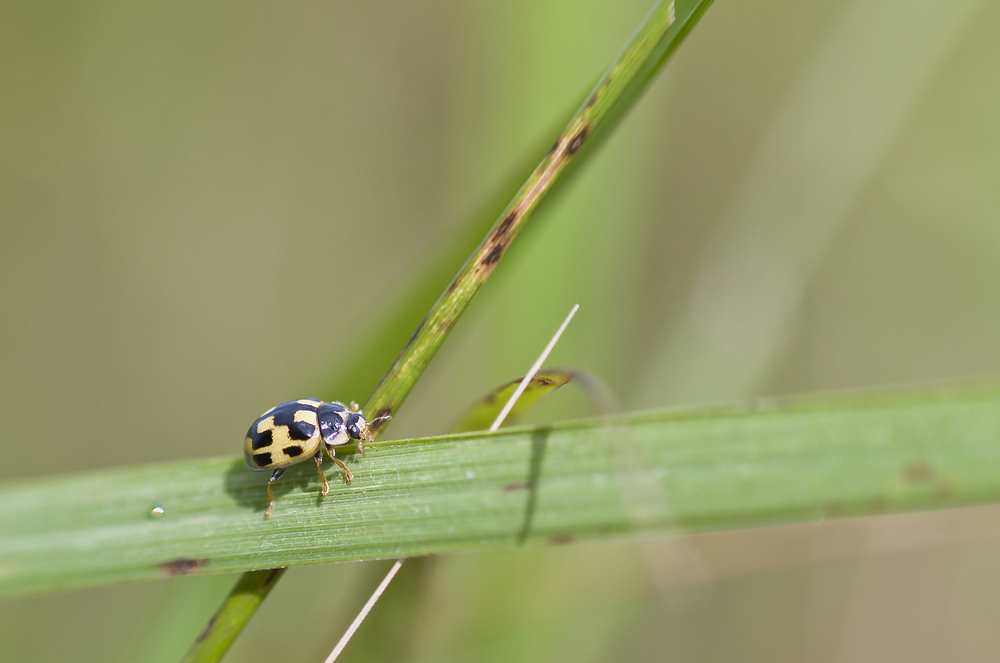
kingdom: Animalia
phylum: Arthropoda
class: Insecta
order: Coleoptera
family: Coccinellidae
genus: Propylaea
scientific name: Propylaea quatuordecimpunctata
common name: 14-spotted ladybird beetle
